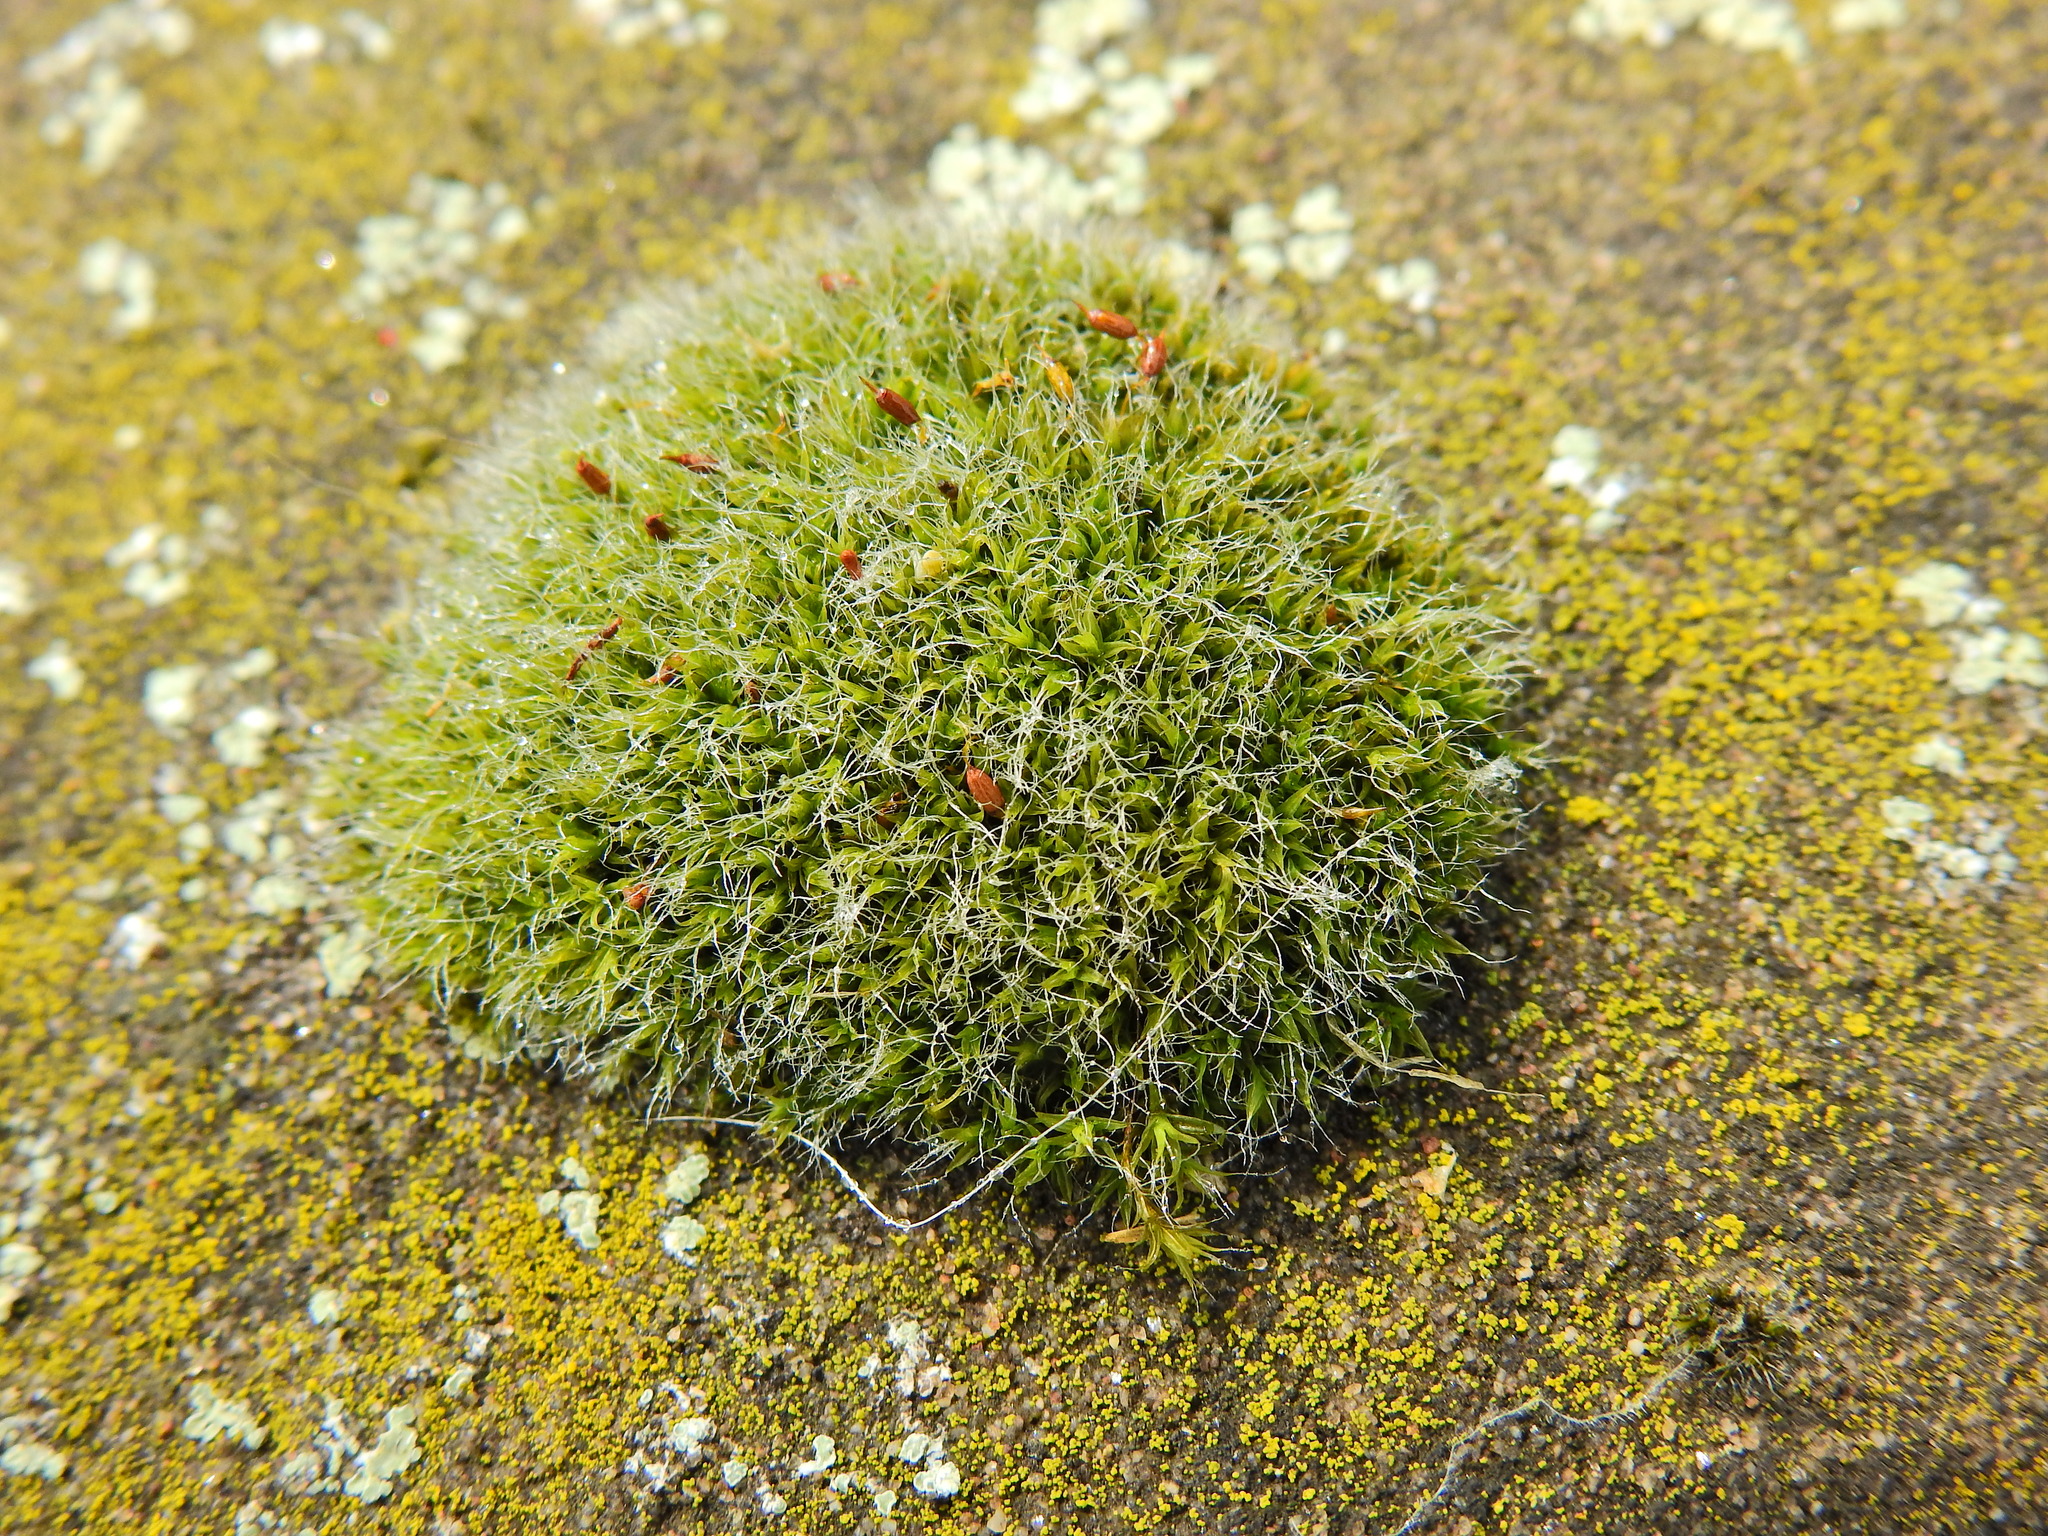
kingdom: Plantae
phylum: Bryophyta
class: Bryopsida
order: Grimmiales
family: Grimmiaceae
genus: Grimmia
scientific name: Grimmia pulvinata
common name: Grey-cushioned grimmia
